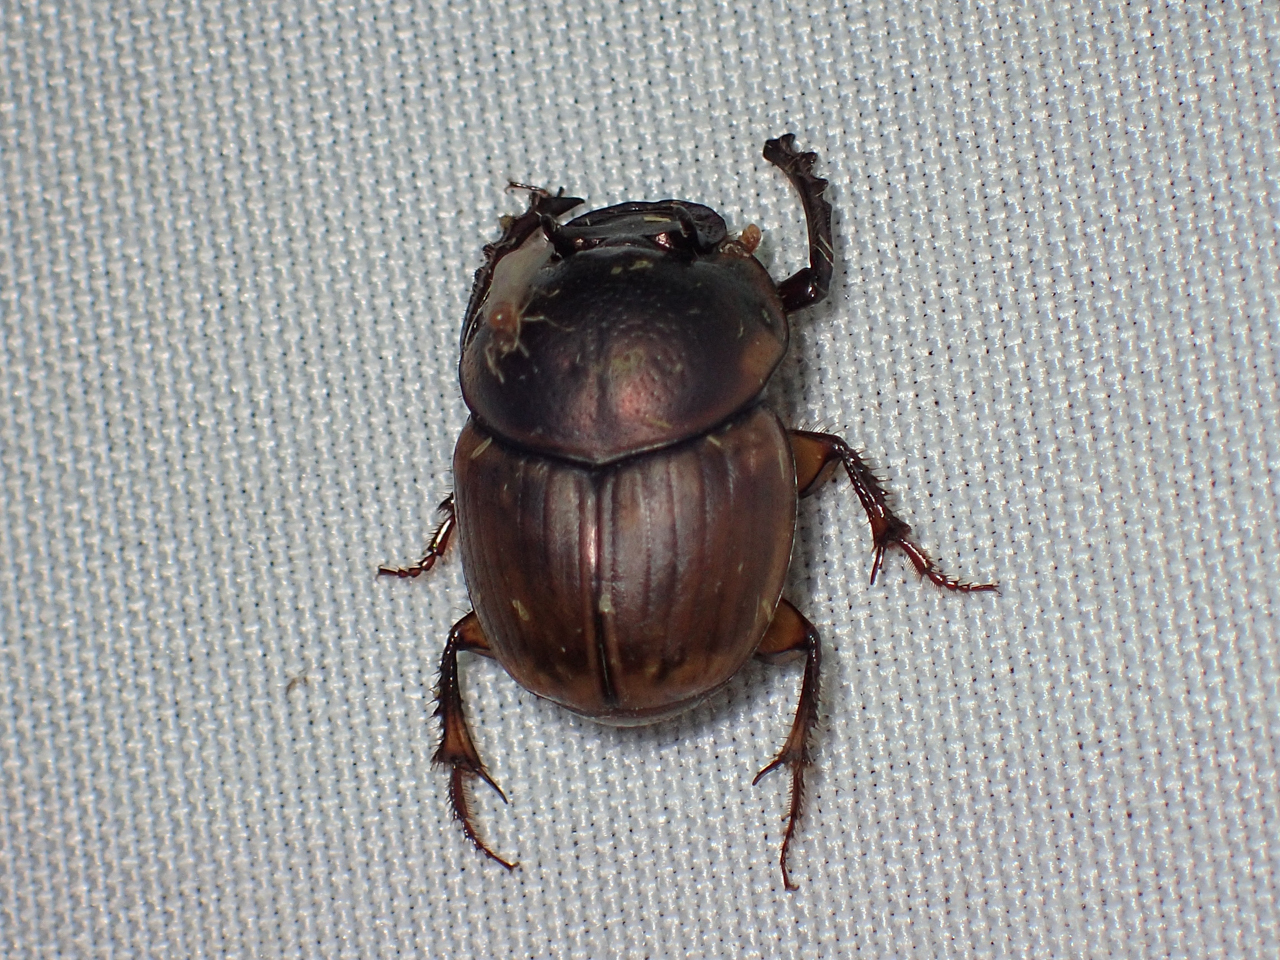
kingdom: Animalia
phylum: Arthropoda
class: Insecta
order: Coleoptera
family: Scarabaeidae
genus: Digitonthophagus
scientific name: Digitonthophagus gazella
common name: Brown dung beetle
